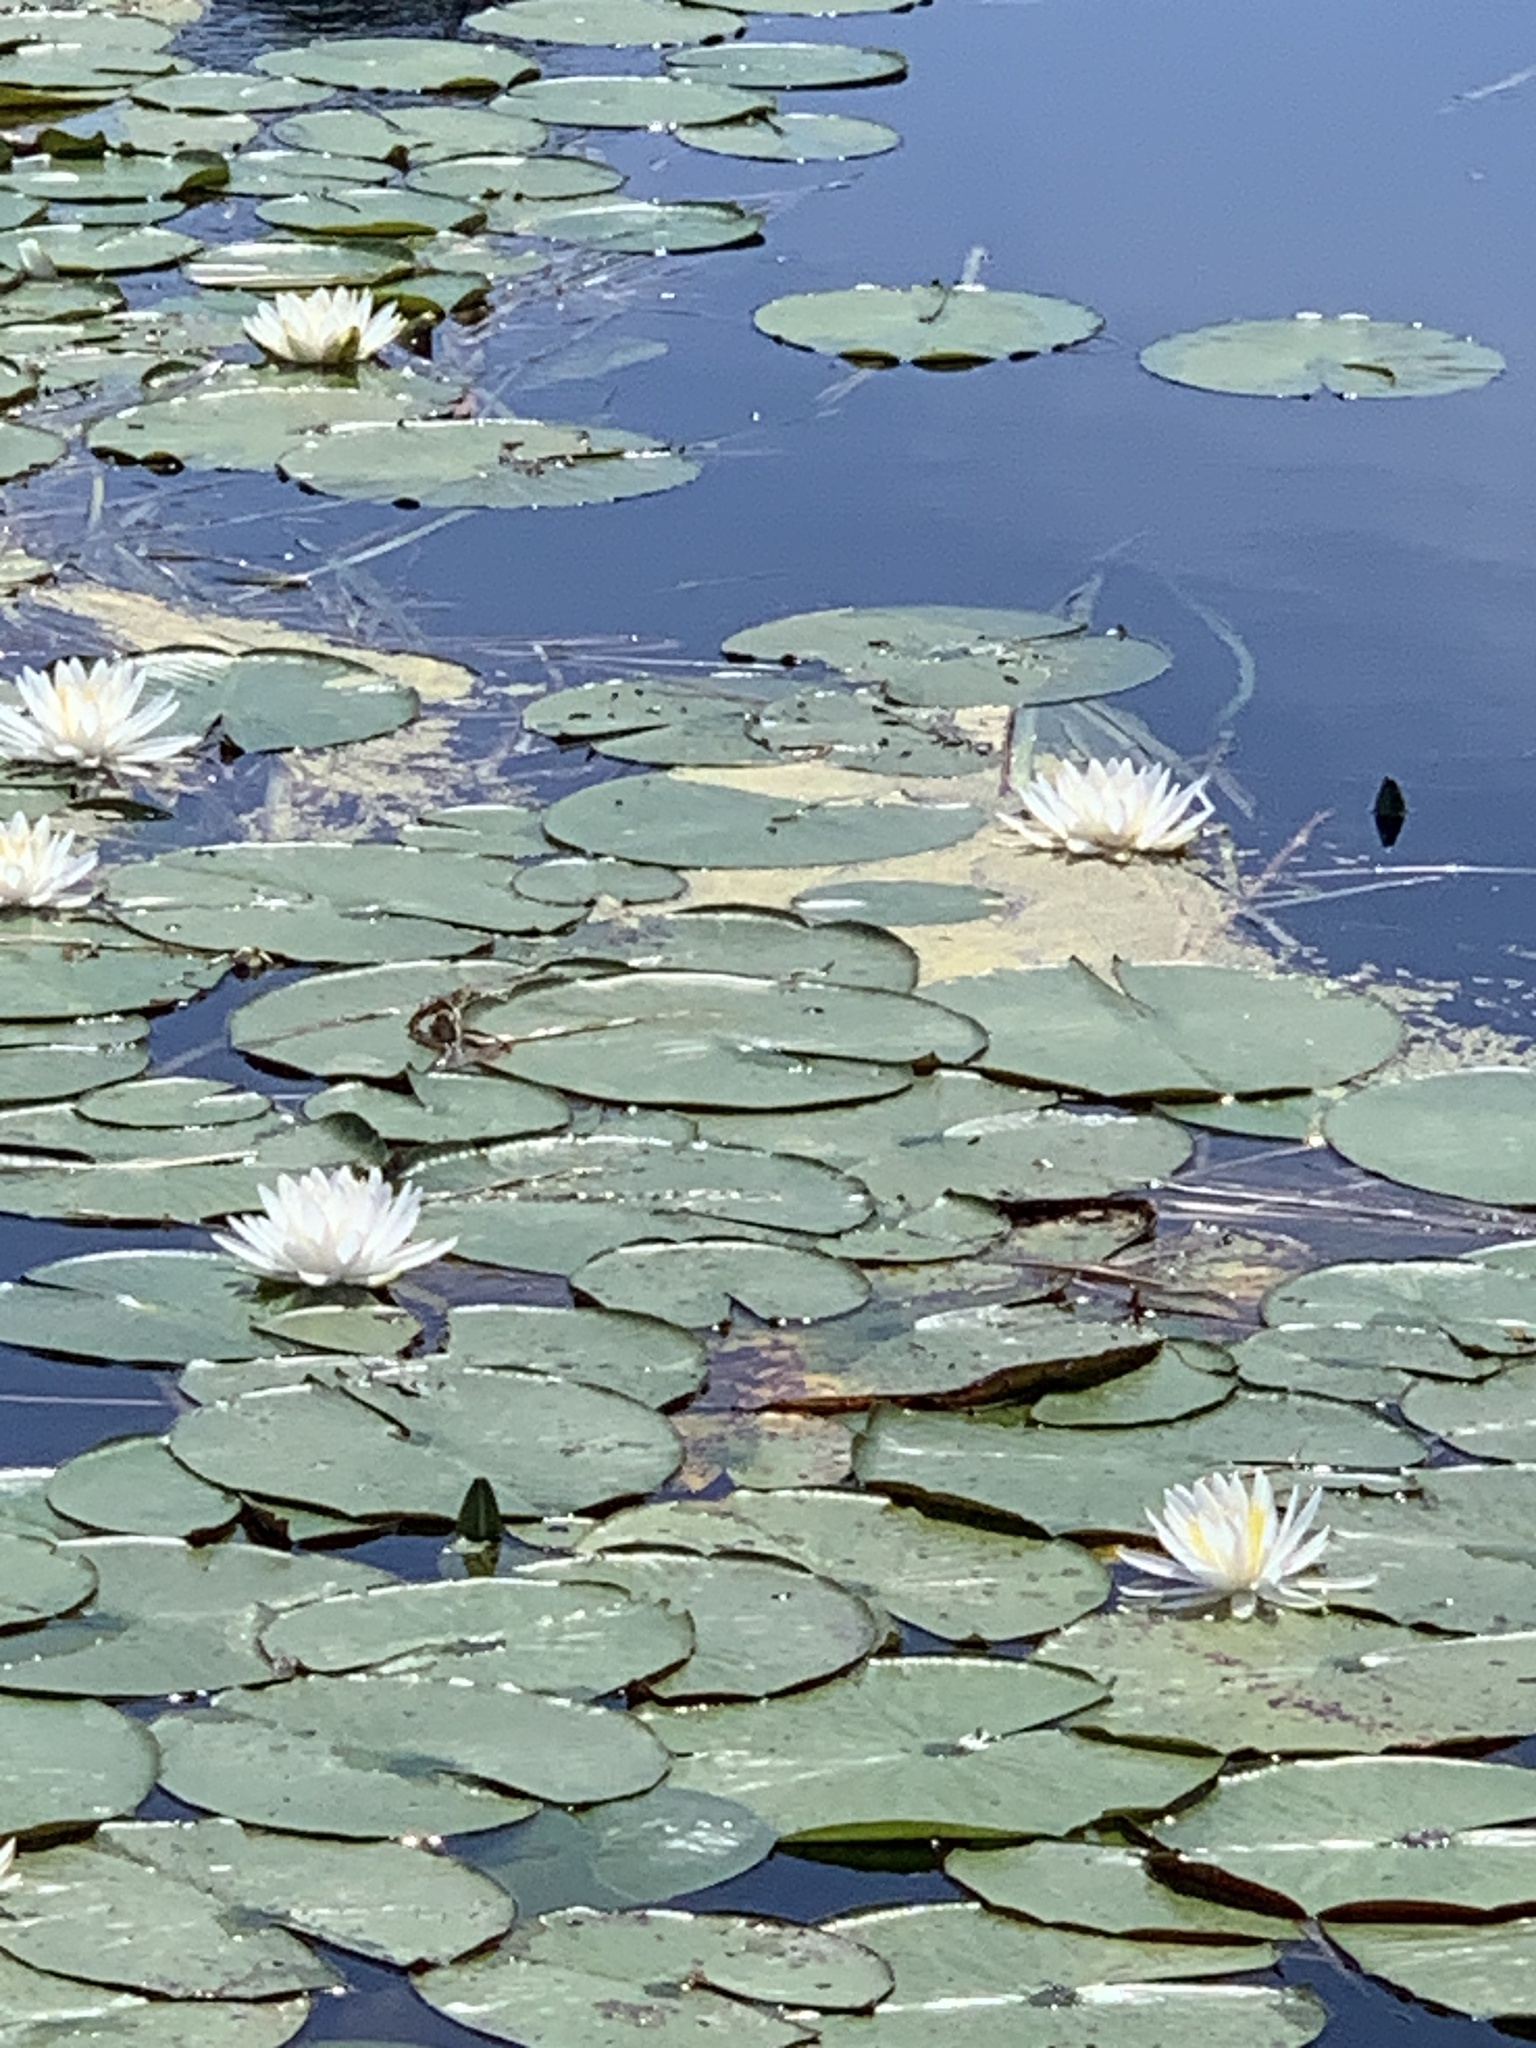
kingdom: Plantae
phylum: Tracheophyta
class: Magnoliopsida
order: Nymphaeales
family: Nymphaeaceae
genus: Nymphaea
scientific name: Nymphaea odorata
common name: Fragrant water-lily
